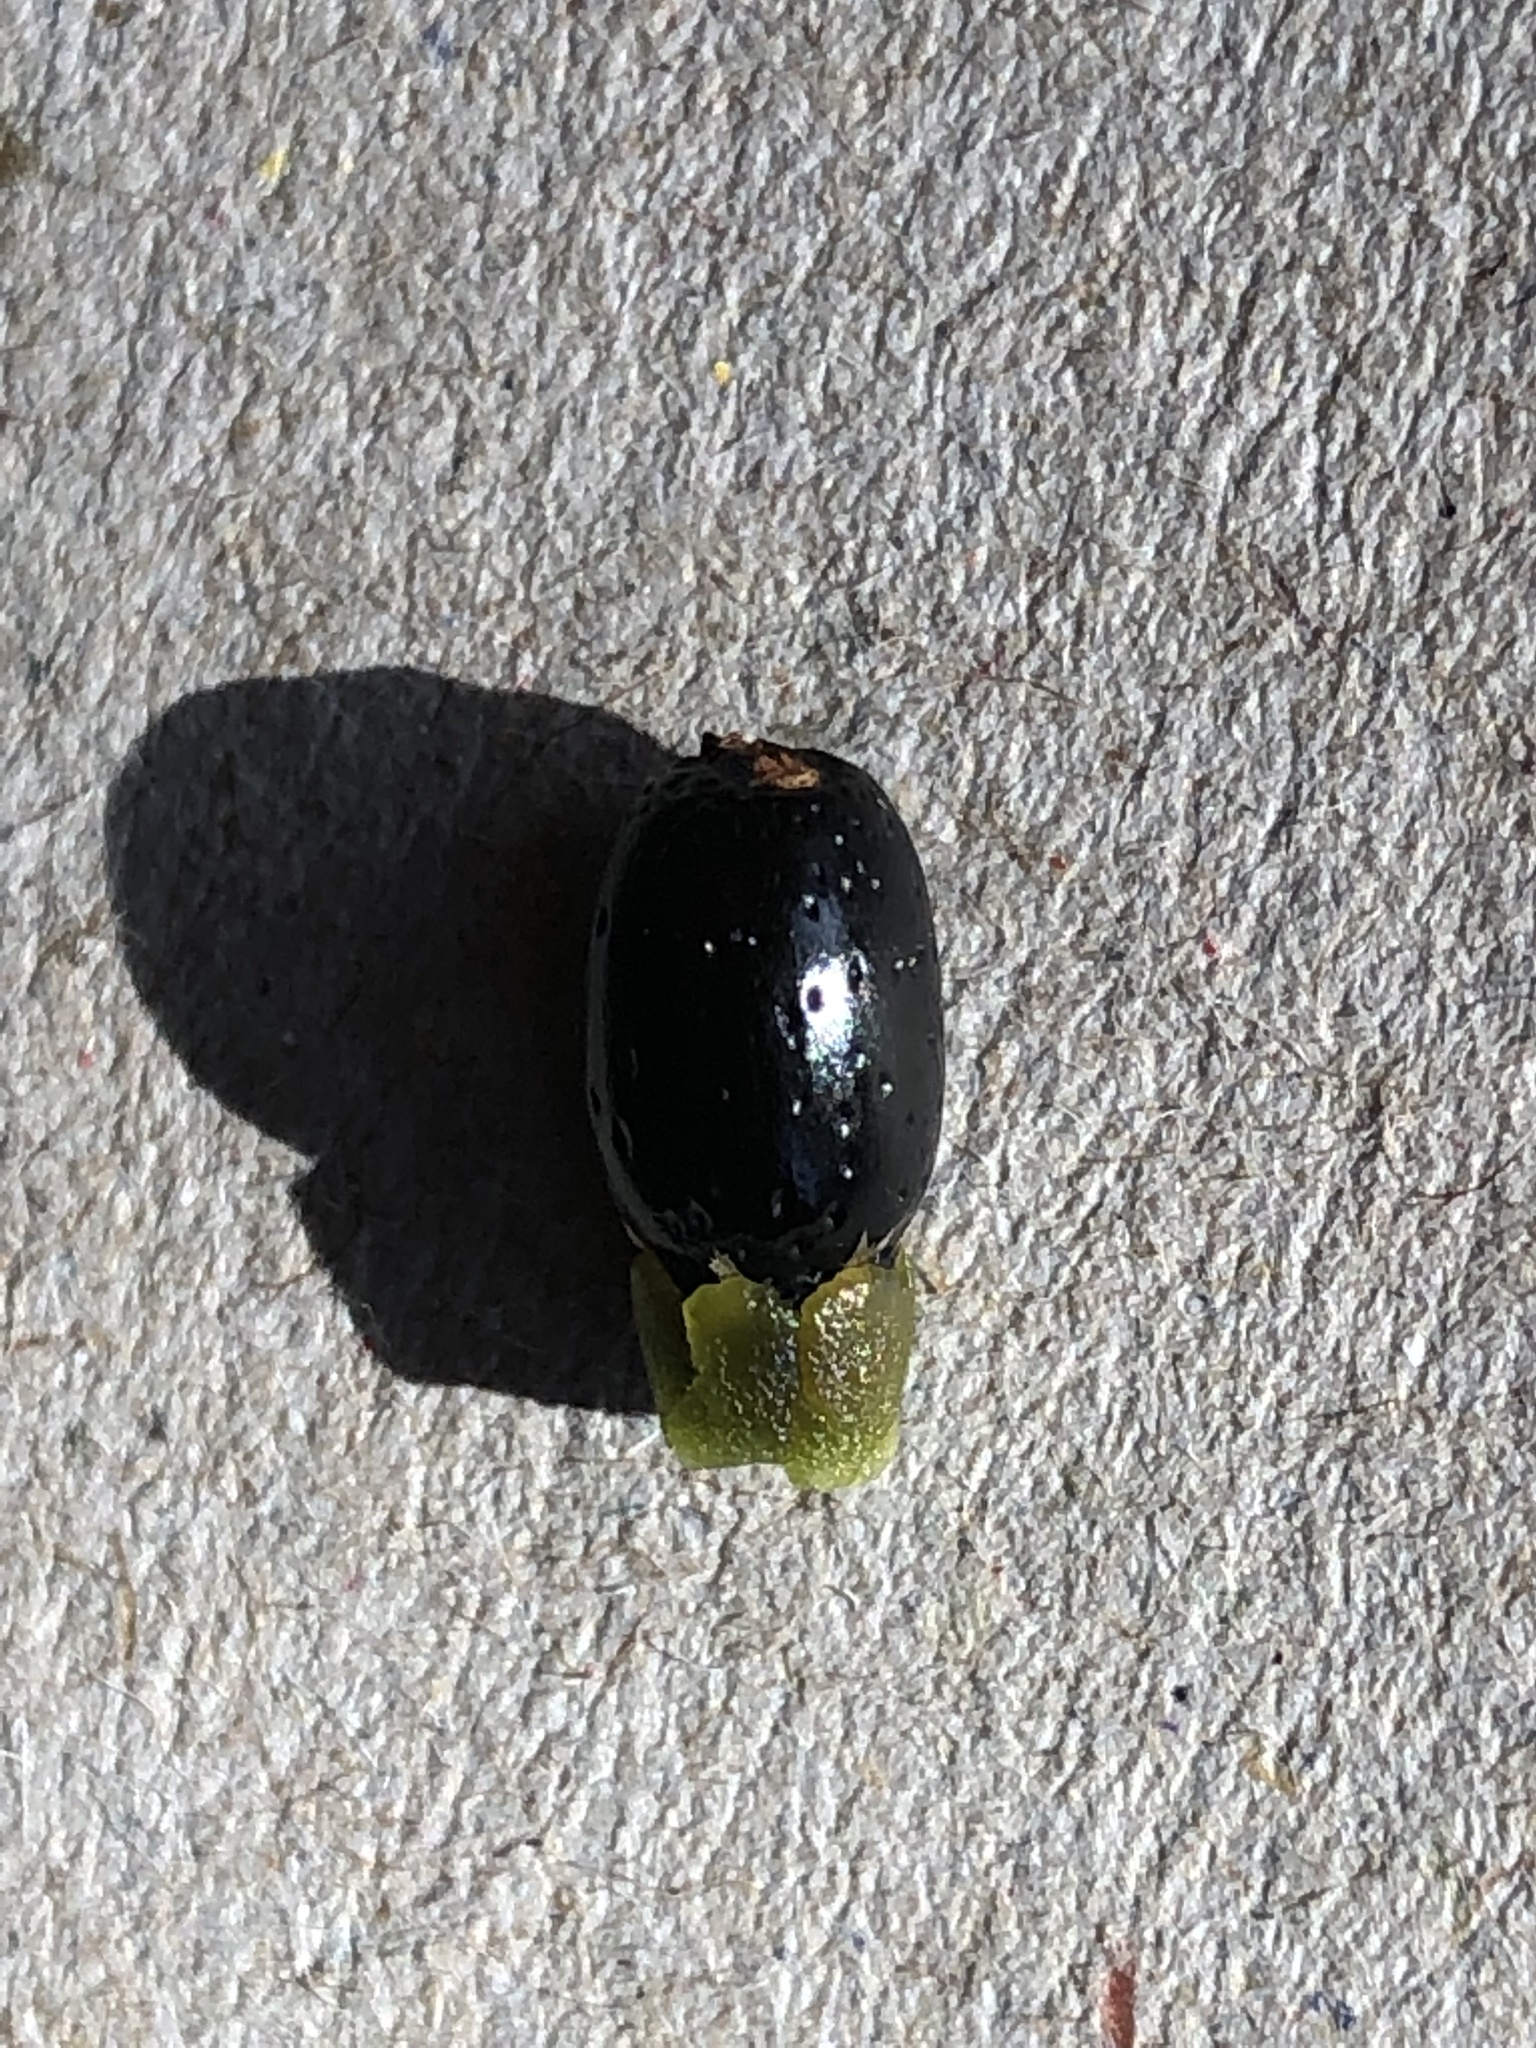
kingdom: Plantae
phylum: Tracheophyta
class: Liliopsida
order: Poales
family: Restionaceae
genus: Willdenowia
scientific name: Willdenowia glomerata
